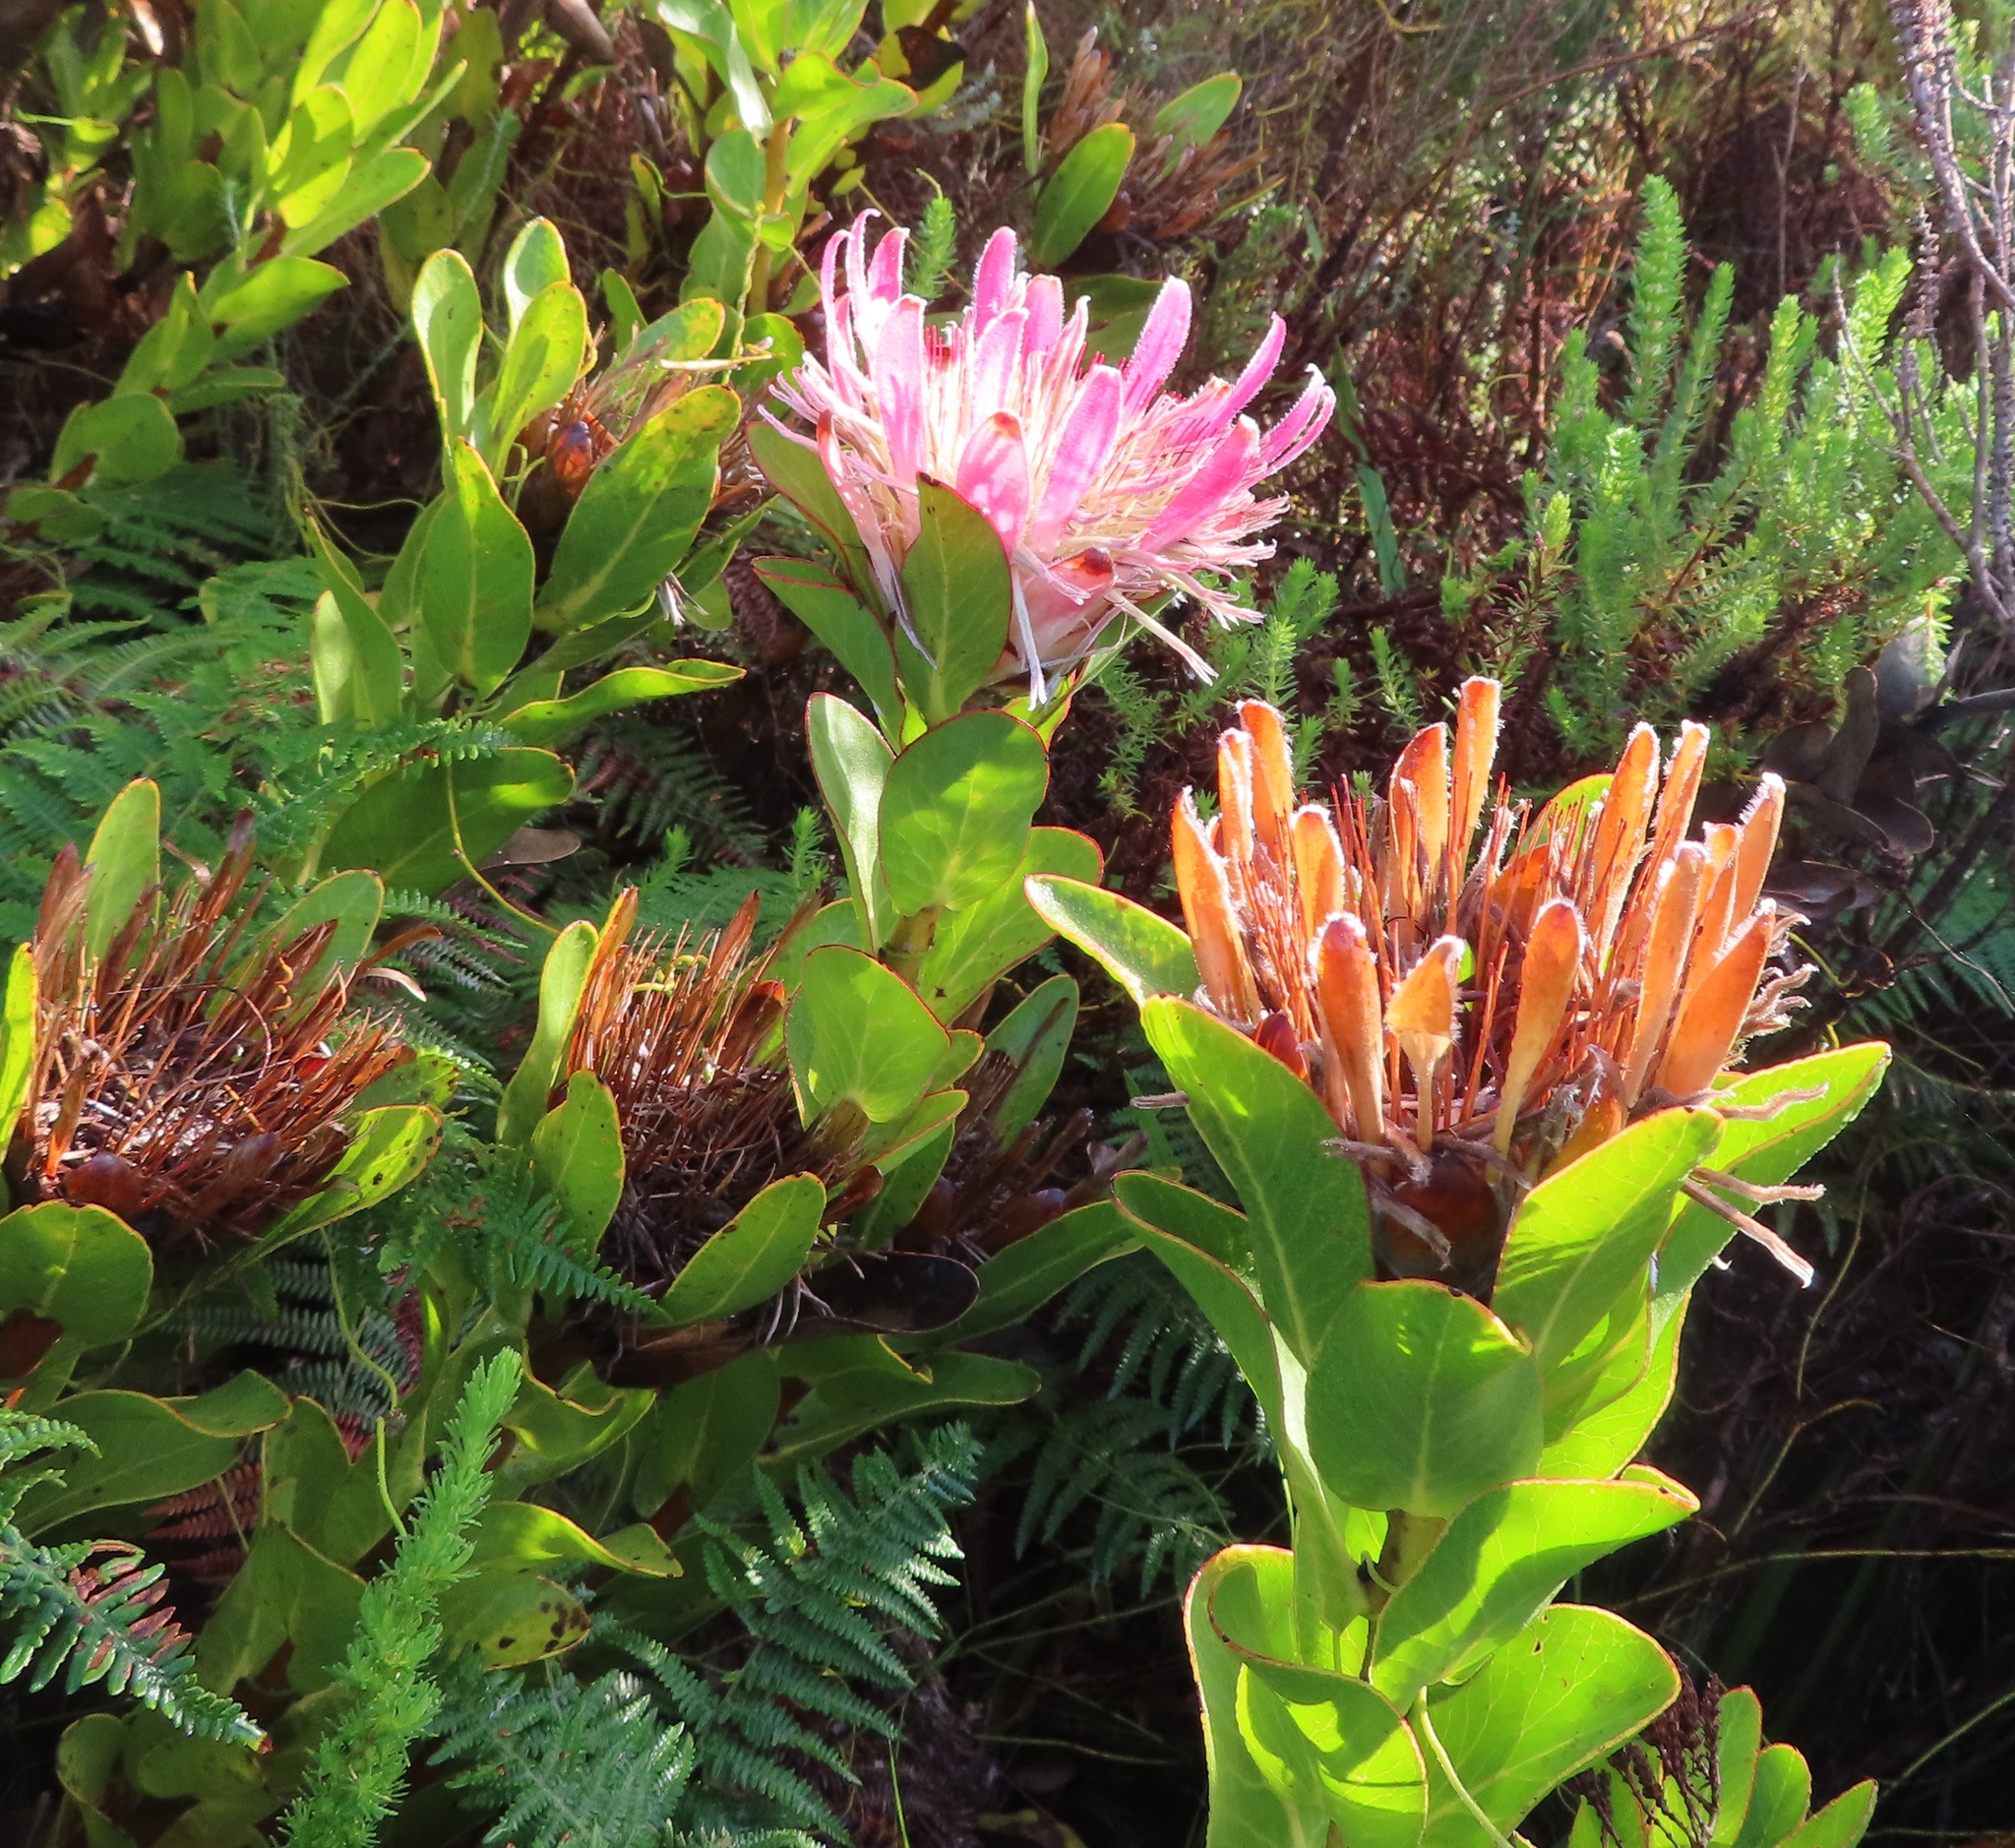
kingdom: Plantae
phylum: Tracheophyta
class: Magnoliopsida
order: Proteales
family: Proteaceae
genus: Protea
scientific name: Protea compacta
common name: Bot river protea
